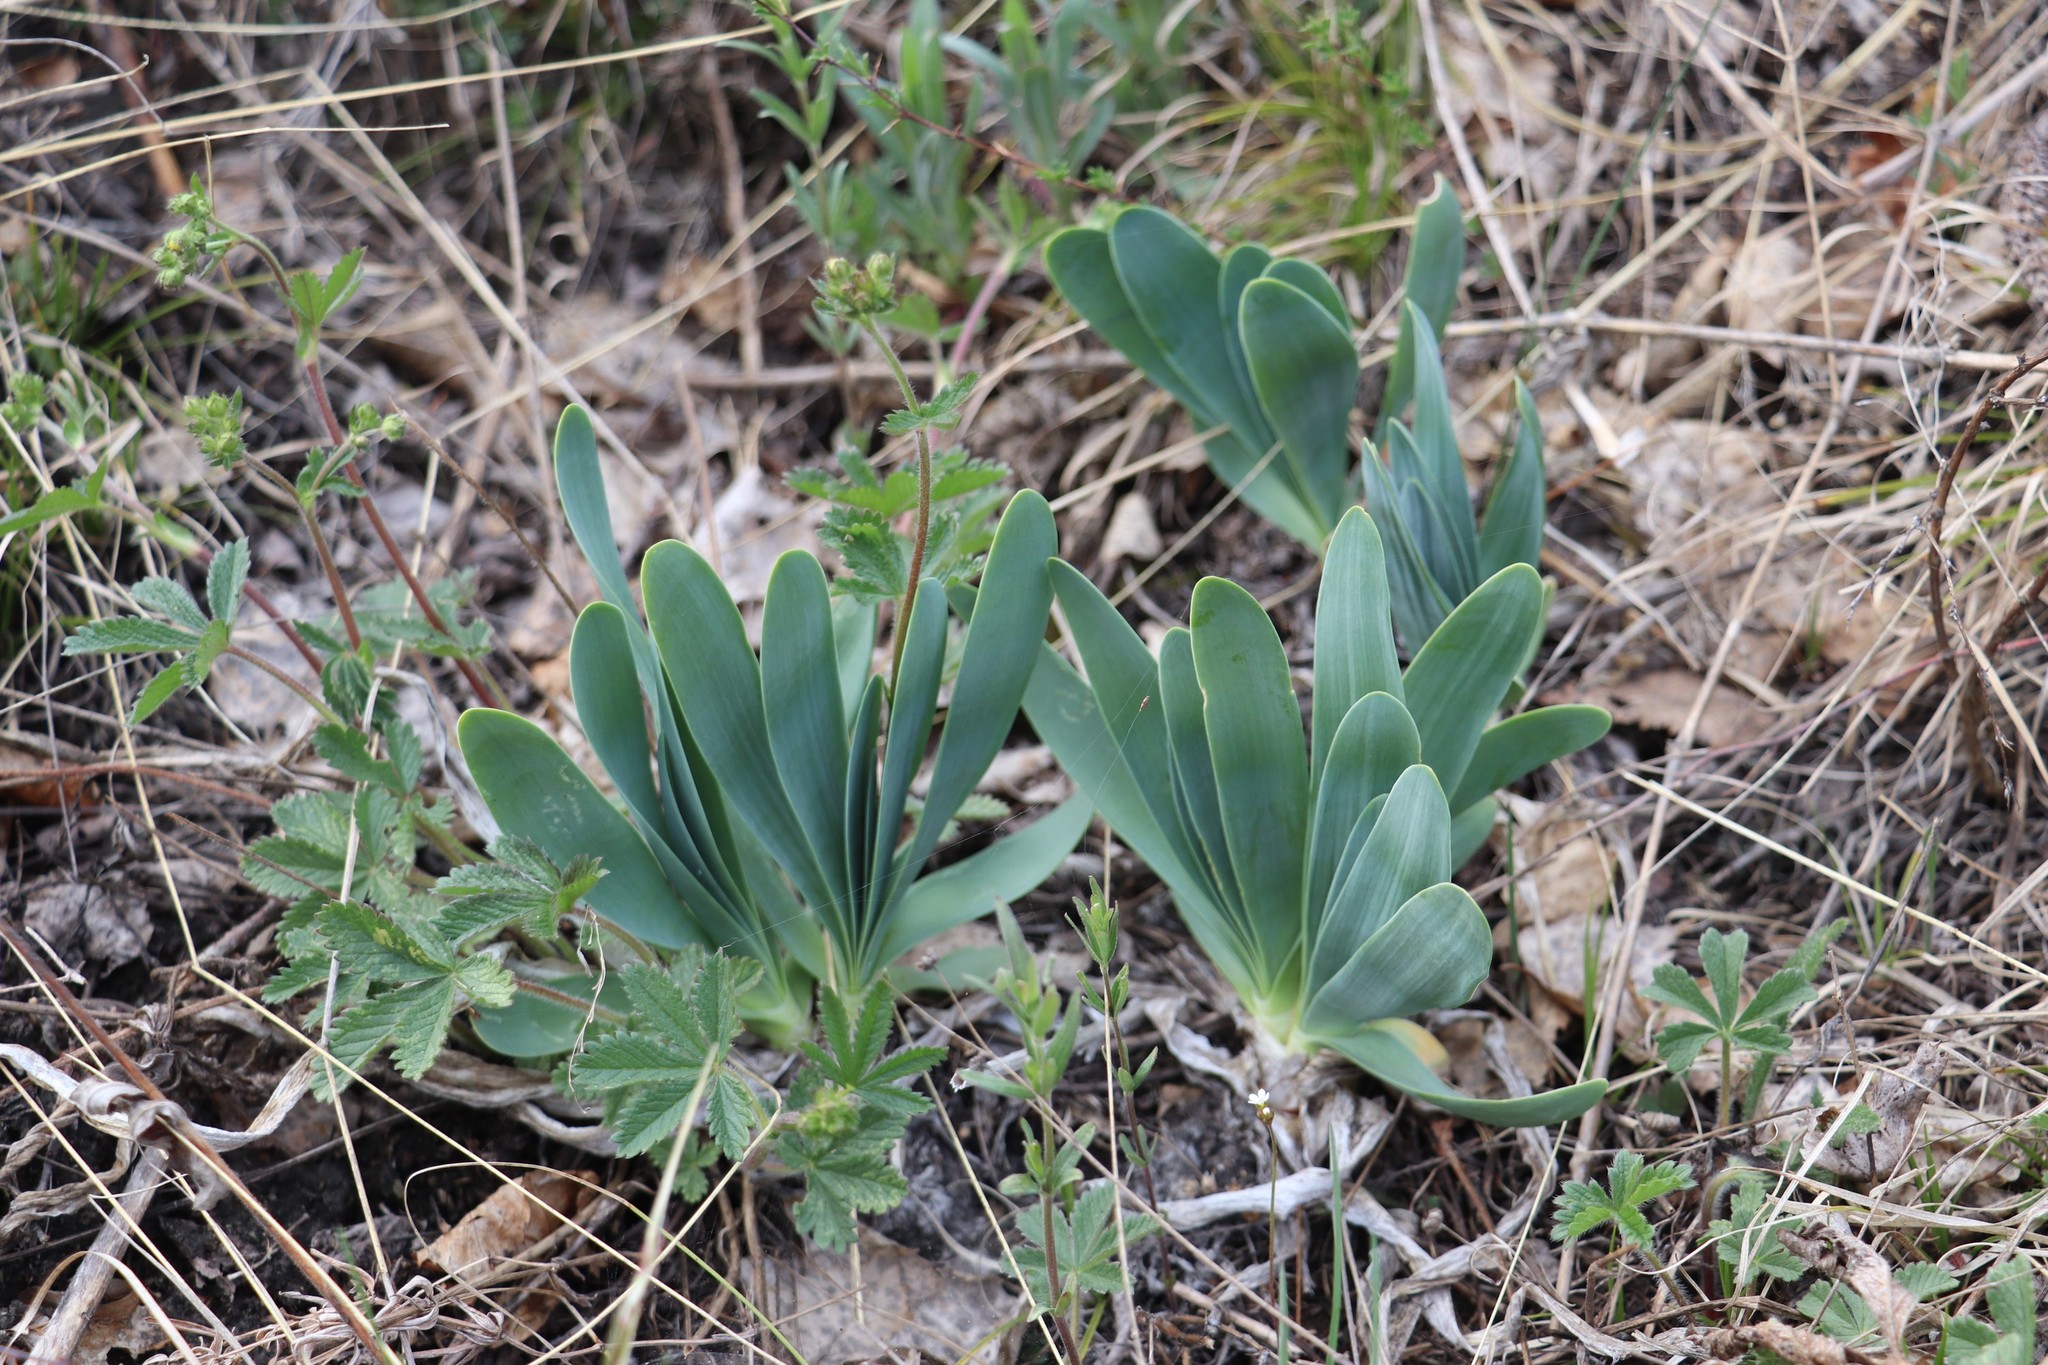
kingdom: Plantae
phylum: Tracheophyta
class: Liliopsida
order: Asparagales
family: Amaryllidaceae
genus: Allium
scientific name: Allium nutans
